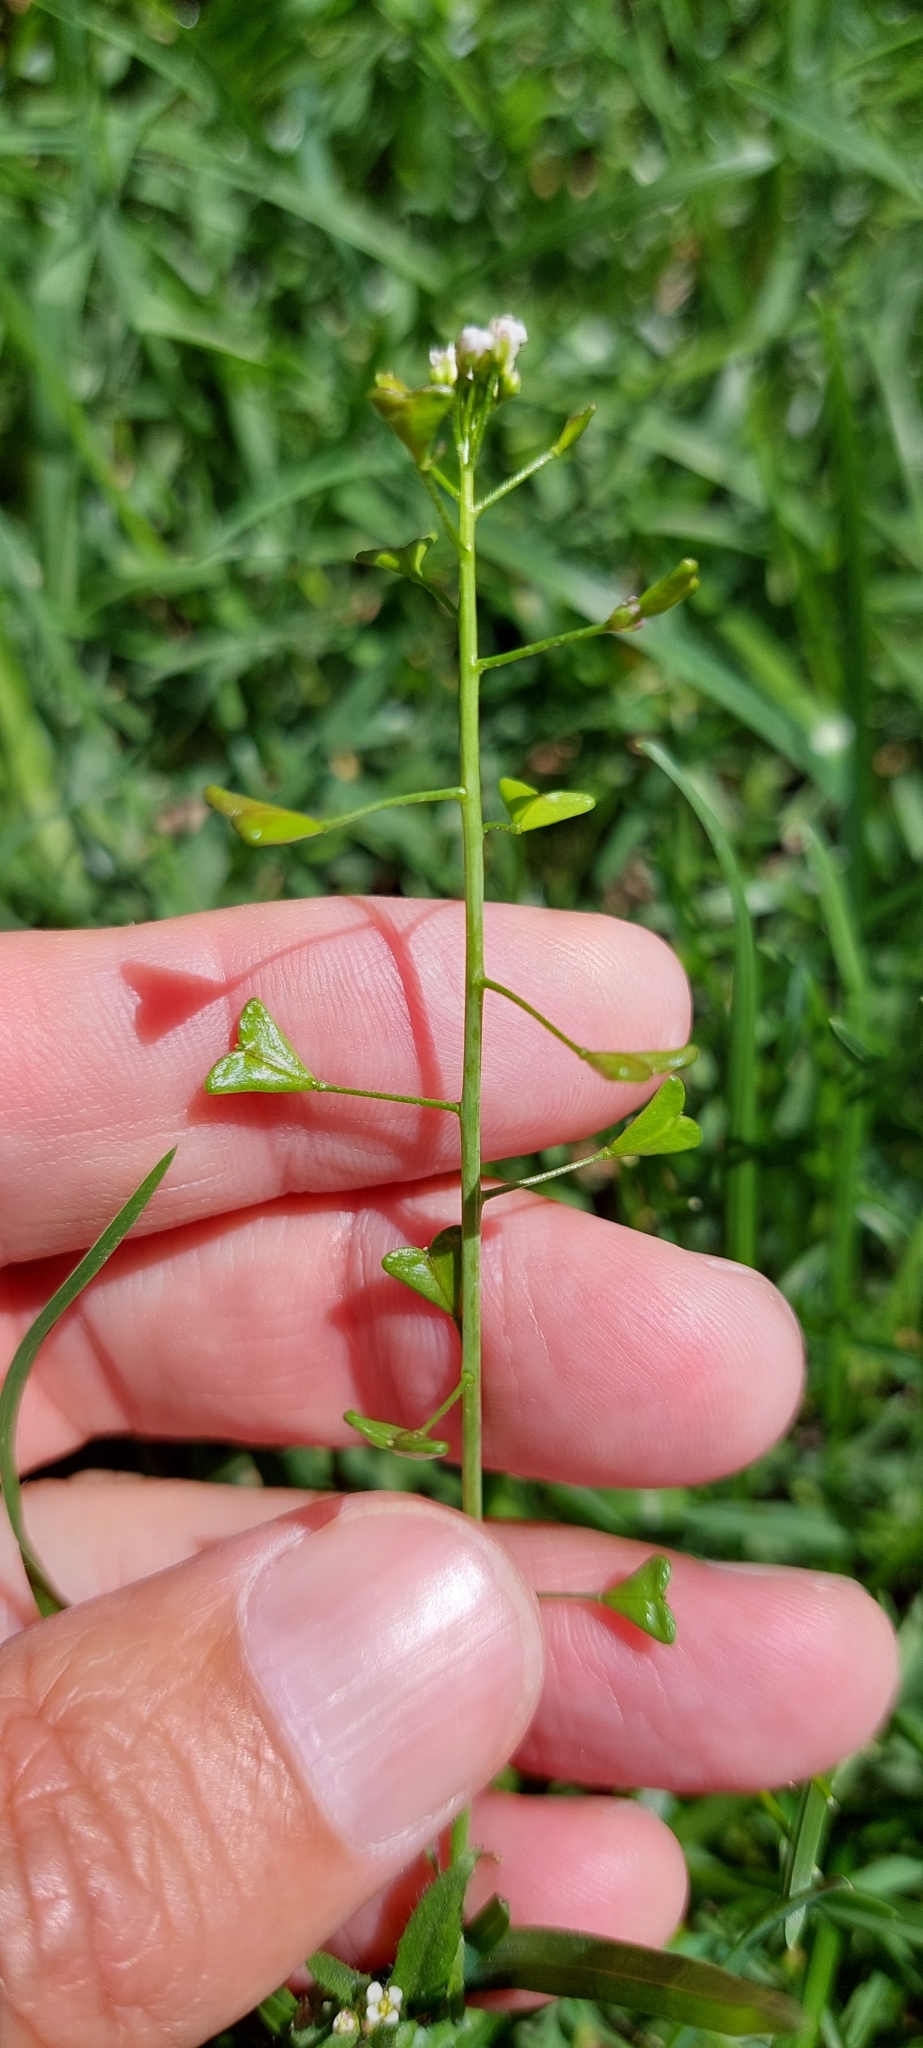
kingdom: Plantae
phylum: Tracheophyta
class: Magnoliopsida
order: Brassicales
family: Brassicaceae
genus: Capsella
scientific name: Capsella bursa-pastoris
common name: Shepherd's purse
